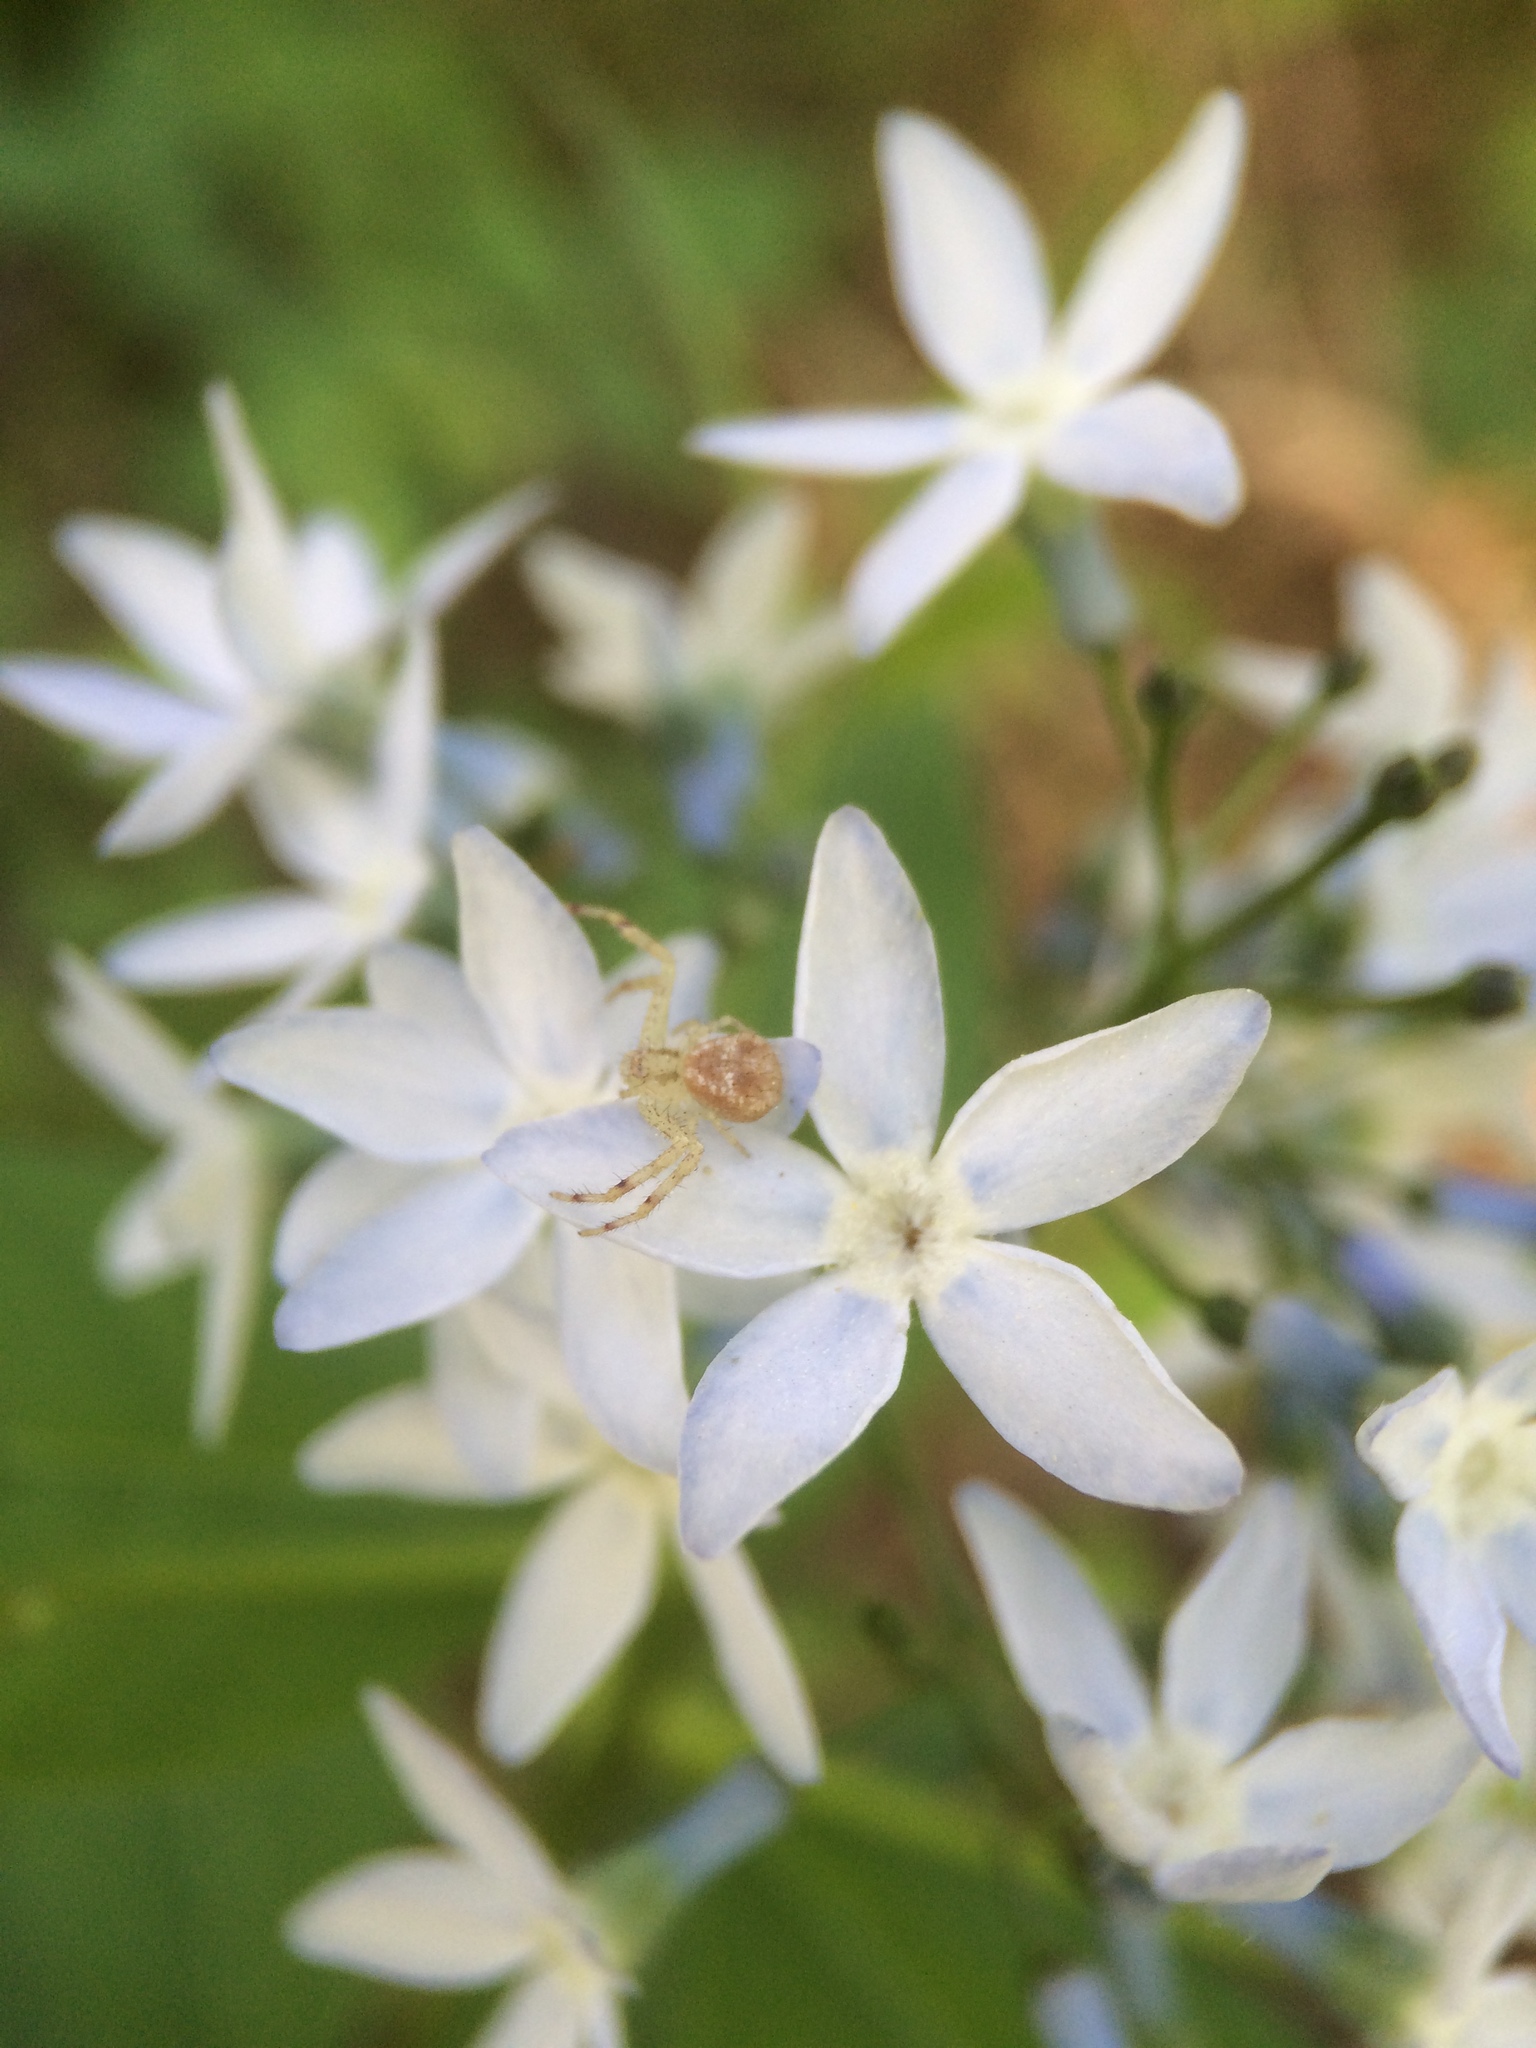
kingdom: Plantae
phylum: Tracheophyta
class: Magnoliopsida
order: Gentianales
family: Apocynaceae
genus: Amsonia
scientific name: Amsonia tabernaemontana
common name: Texas-star
